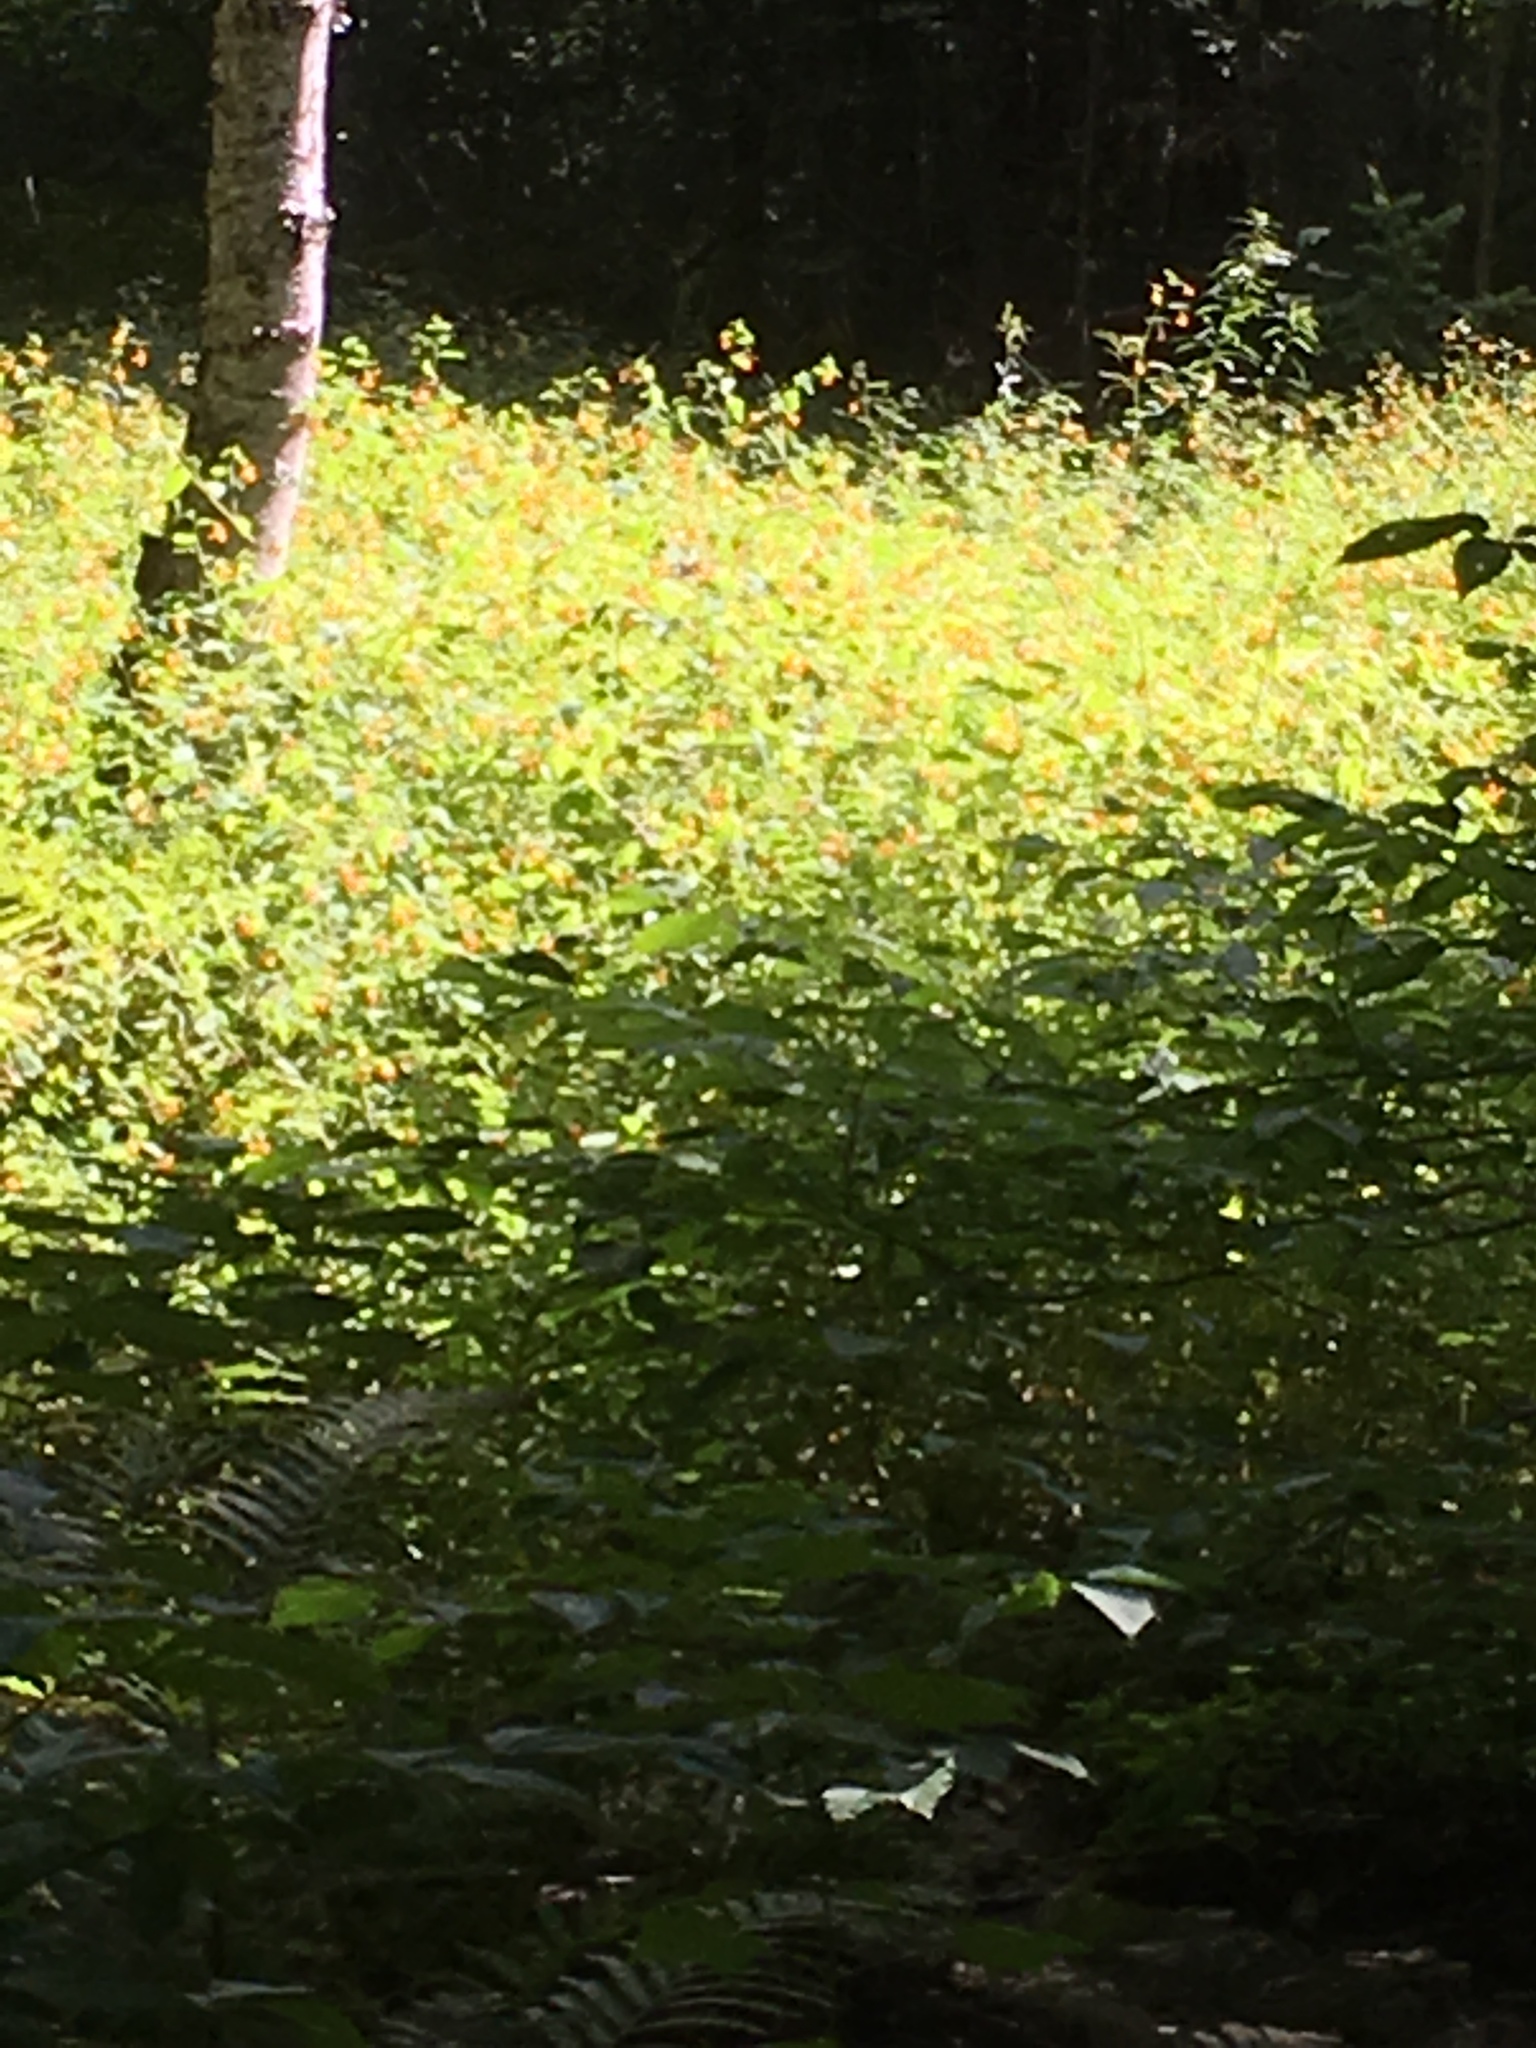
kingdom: Plantae
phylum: Tracheophyta
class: Magnoliopsida
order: Ericales
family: Balsaminaceae
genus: Impatiens
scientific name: Impatiens capensis
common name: Orange balsam
